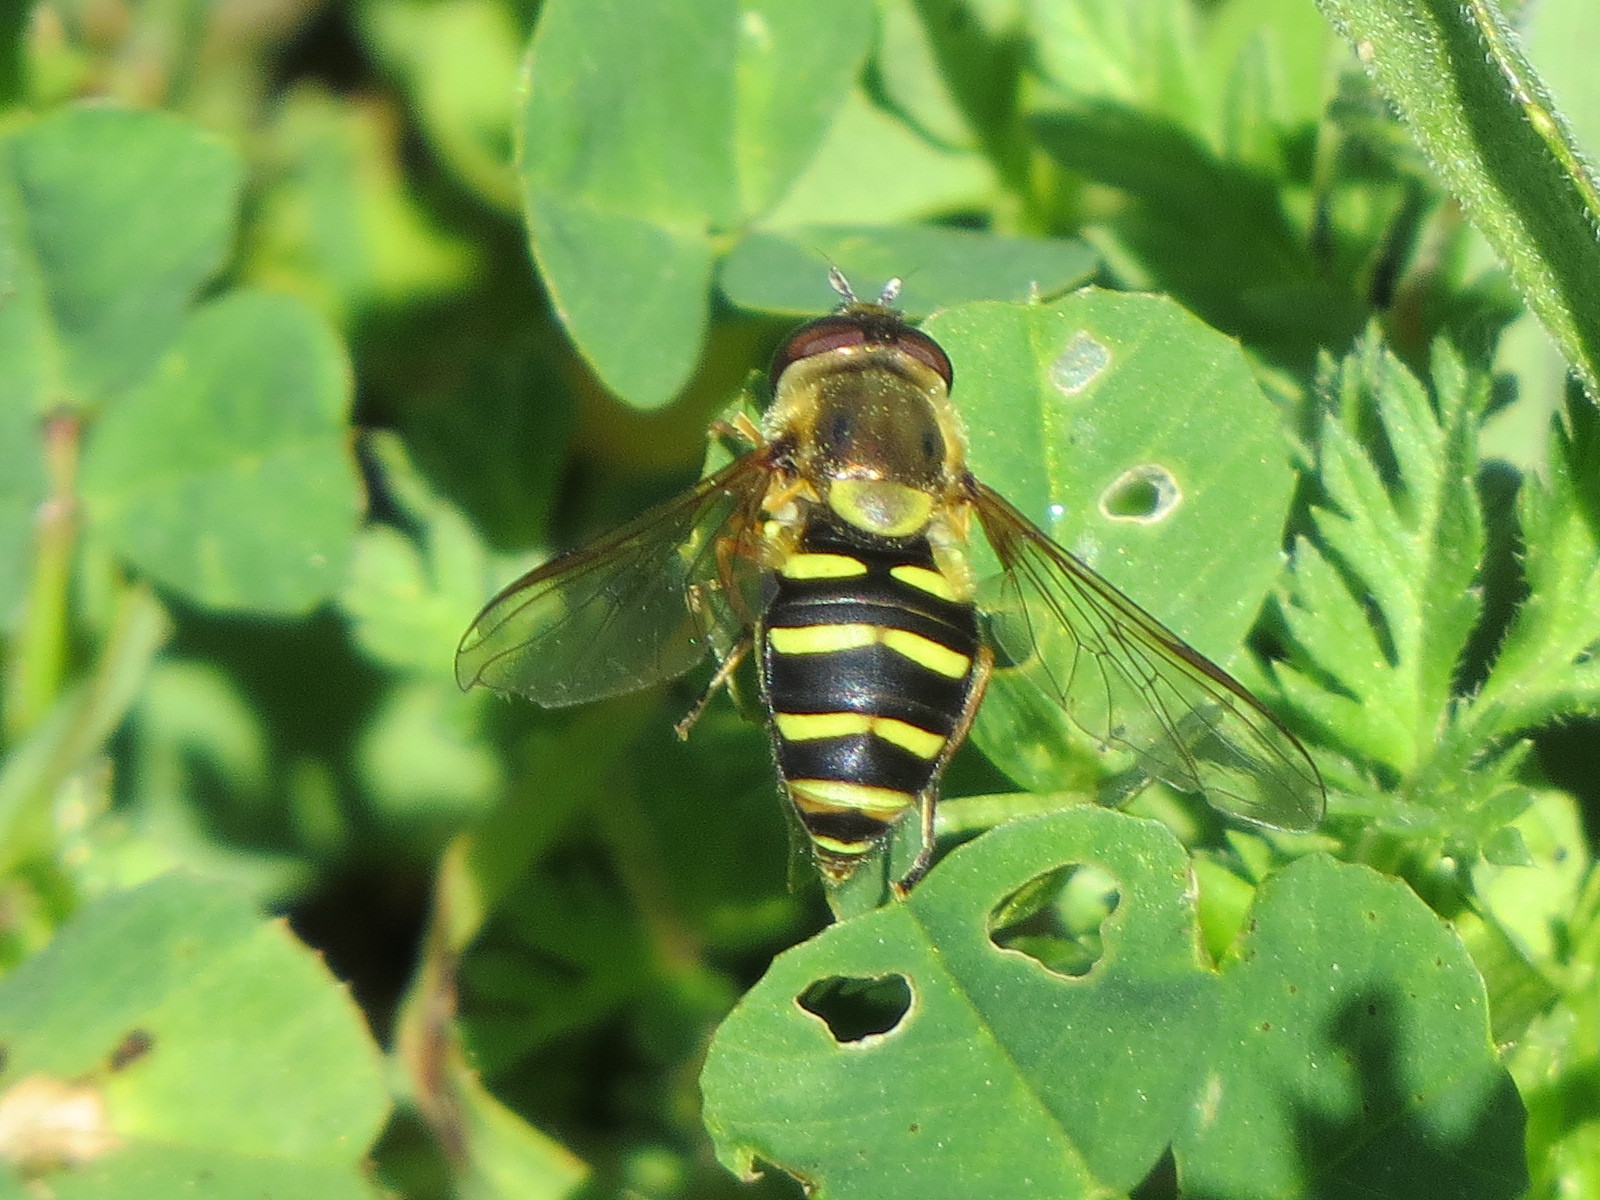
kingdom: Animalia
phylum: Arthropoda
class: Insecta
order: Diptera
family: Syrphidae
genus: Syrphus
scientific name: Syrphus opinator
